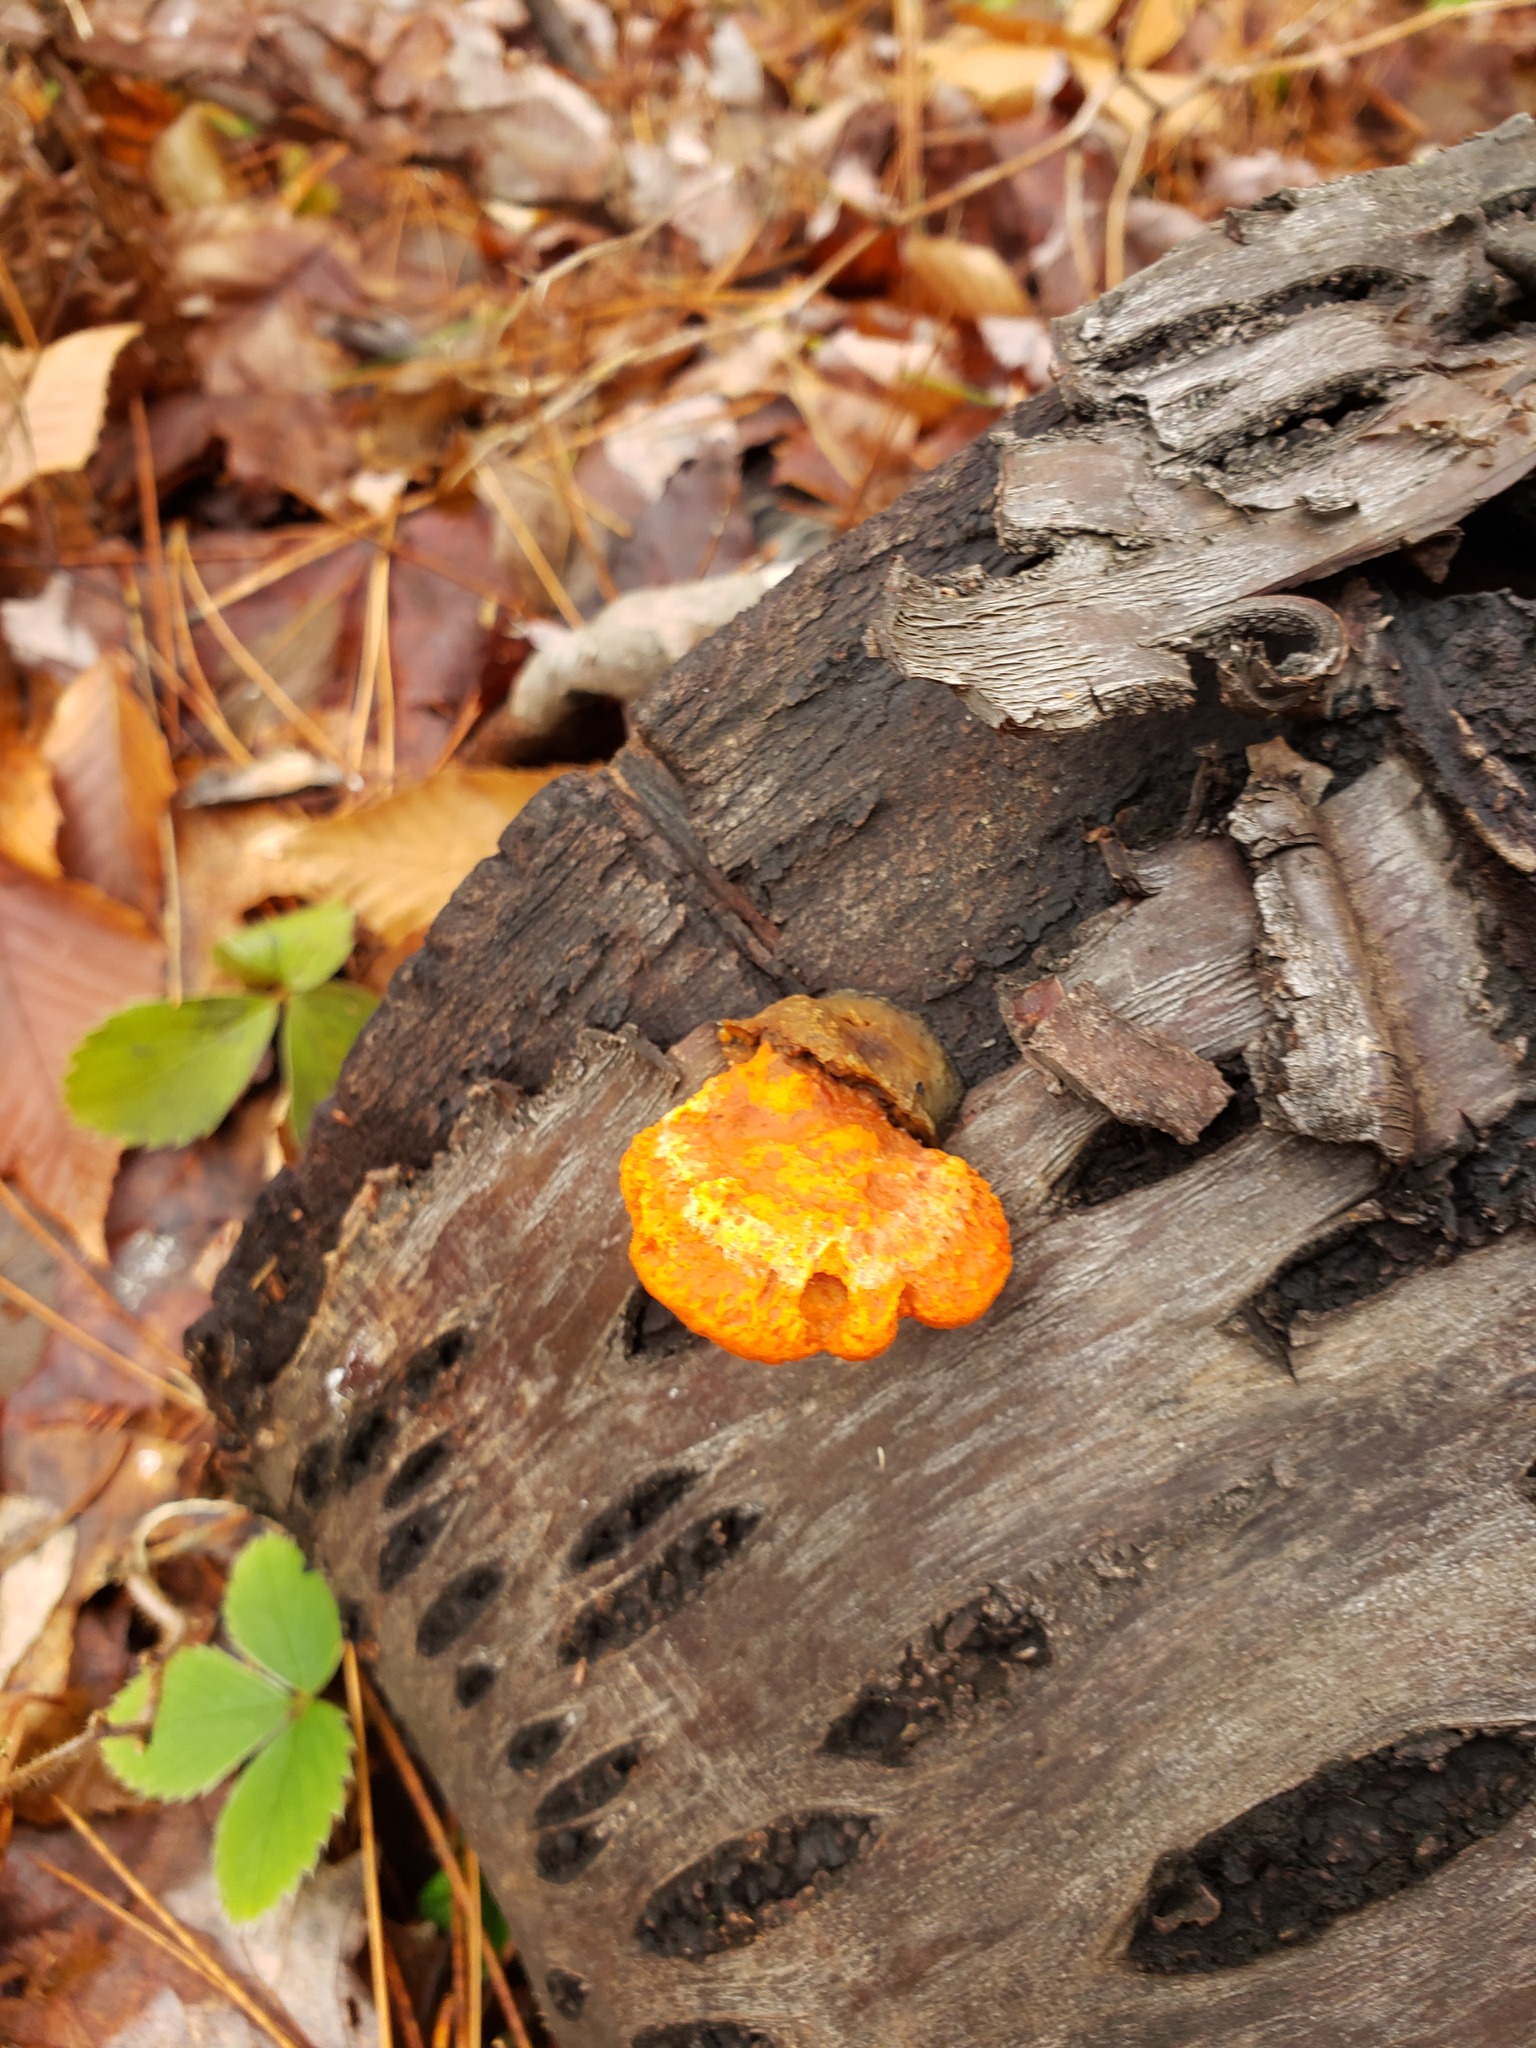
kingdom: Fungi
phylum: Basidiomycota
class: Agaricomycetes
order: Polyporales
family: Polyporaceae
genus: Trametes
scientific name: Trametes cinnabarina
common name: Northern cinnabar polypore
